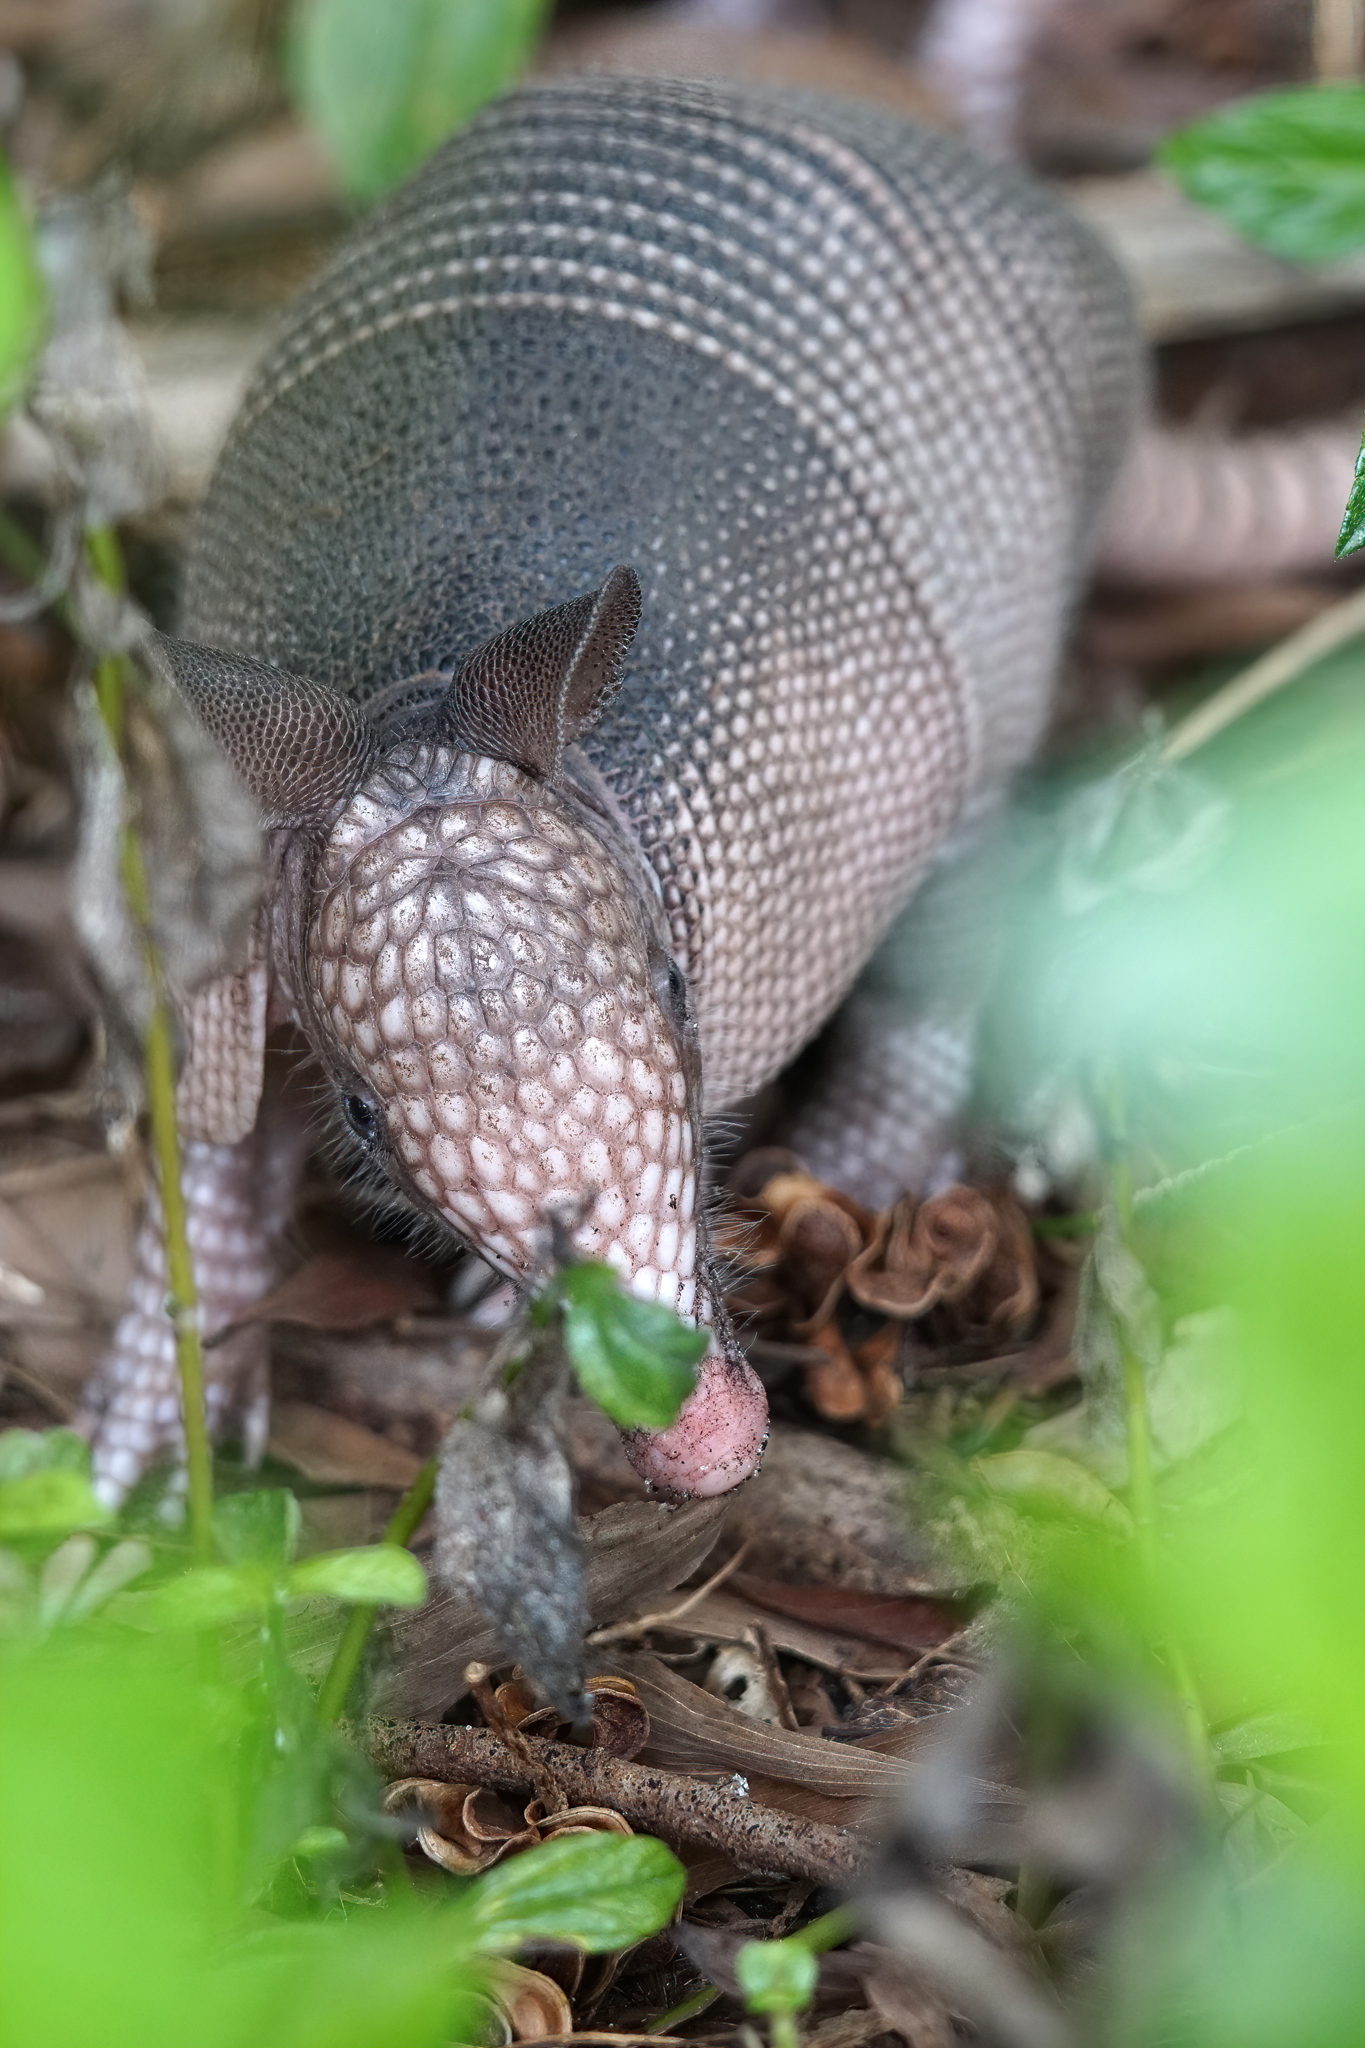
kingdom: Animalia
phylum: Chordata
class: Mammalia
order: Cingulata
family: Dasypodidae
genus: Dasypus
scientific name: Dasypus novemcinctus
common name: Nine-banded armadillo
